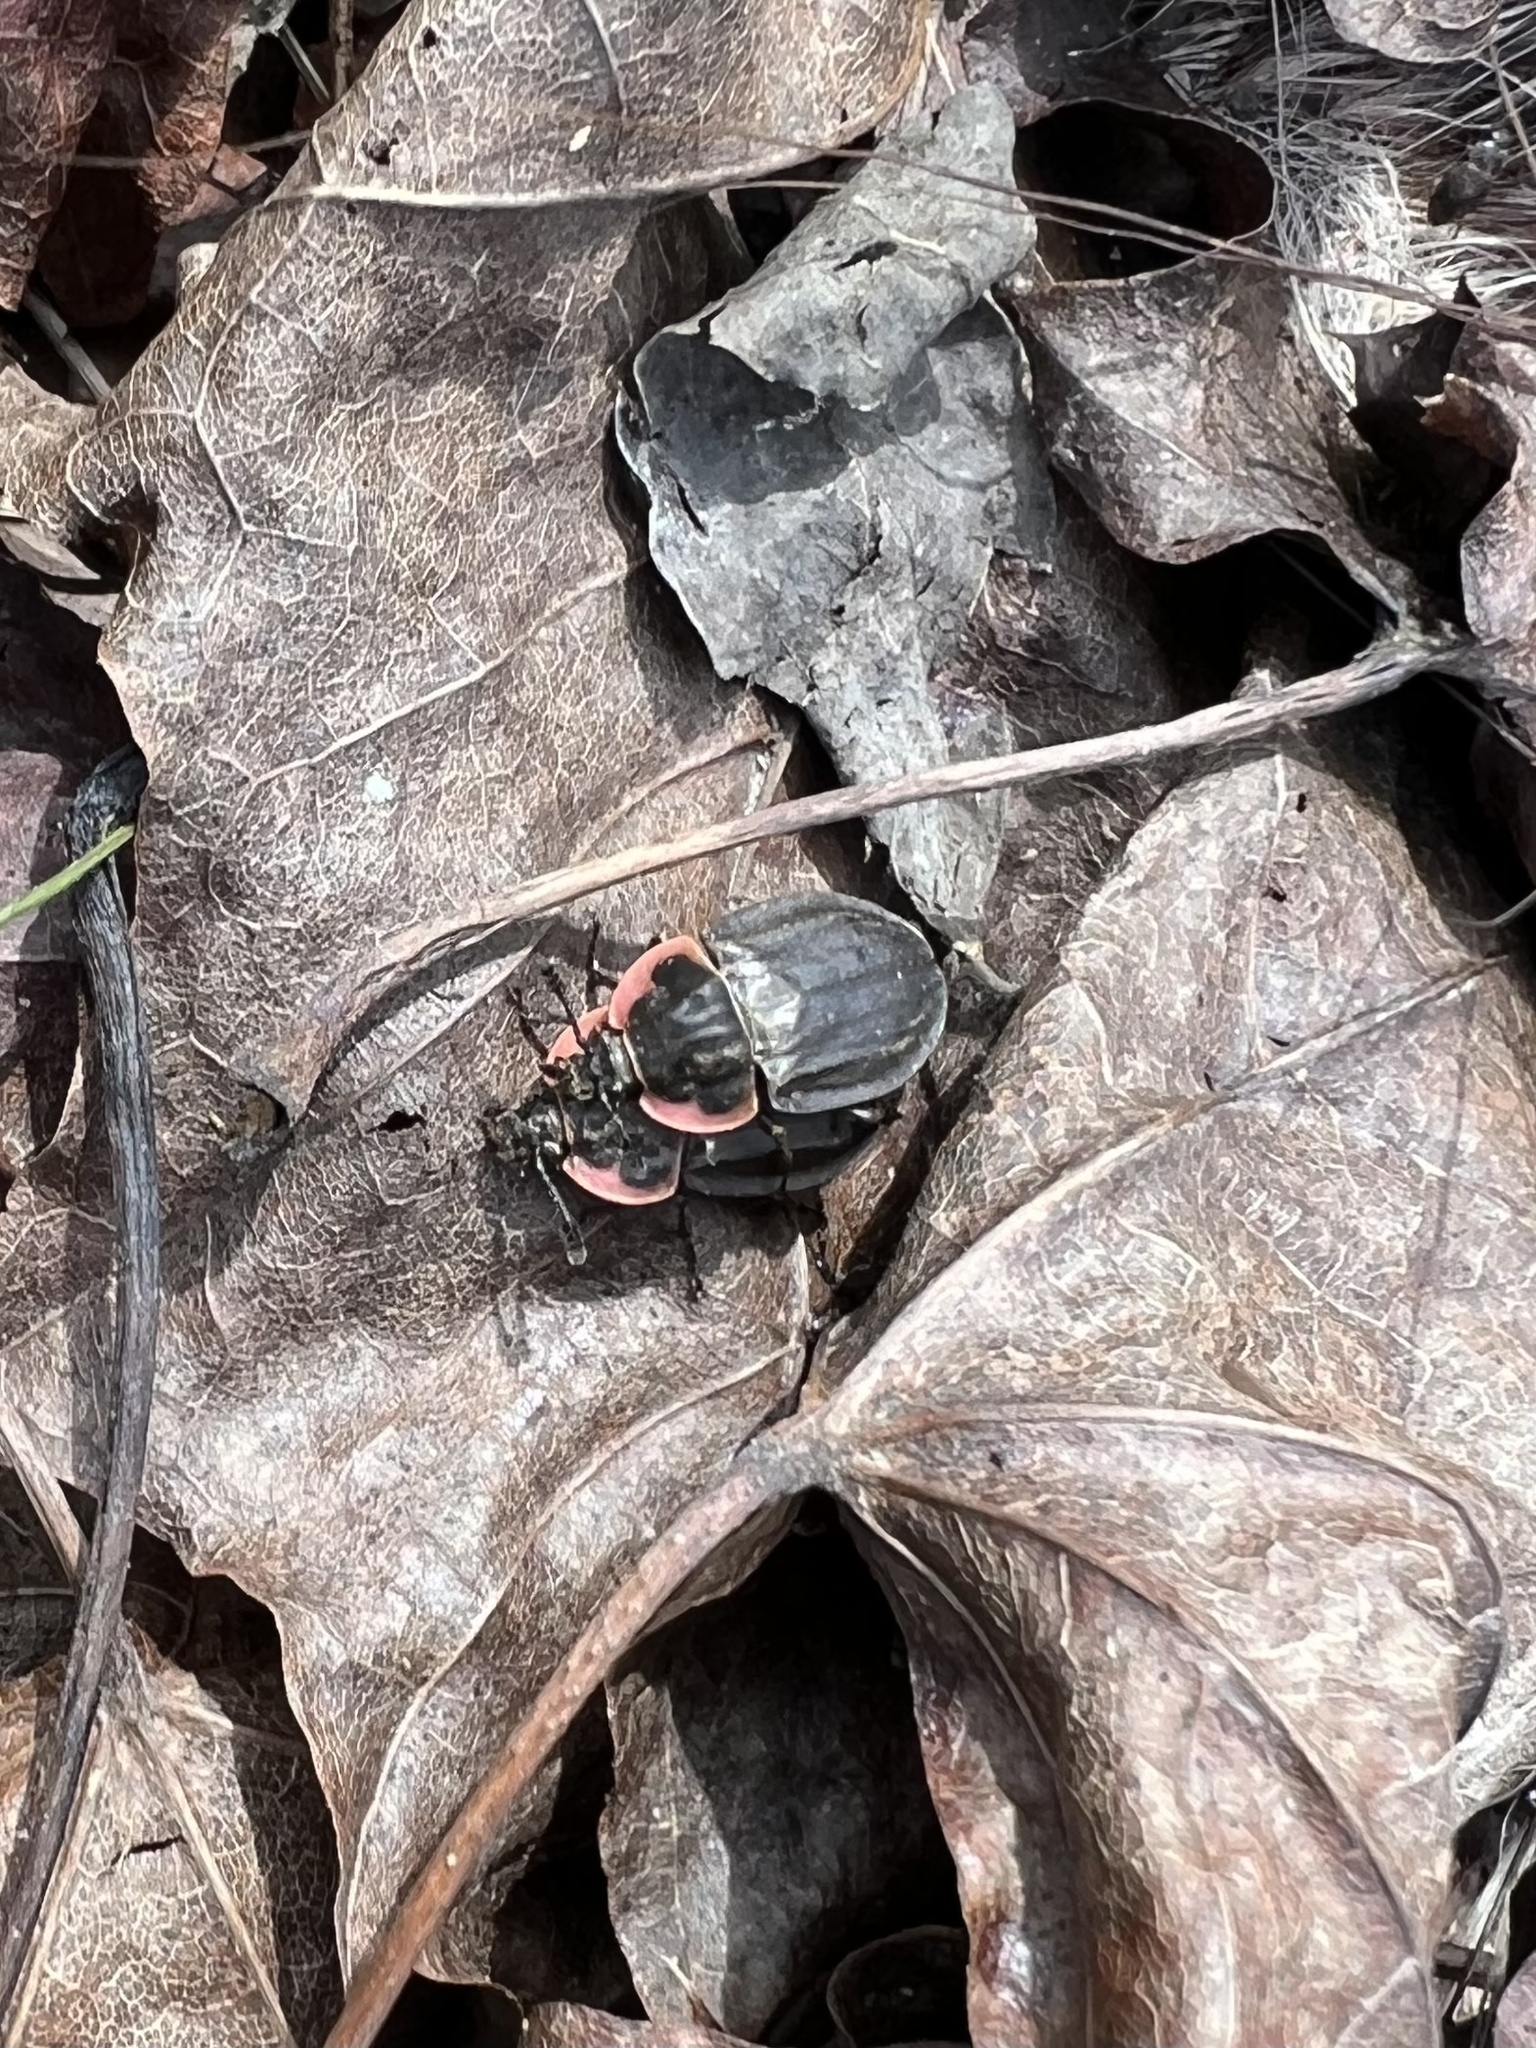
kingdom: Animalia
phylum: Arthropoda
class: Insecta
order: Coleoptera
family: Staphylinidae
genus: Oiceoptoma
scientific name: Oiceoptoma noveboracense
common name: Margined carrion beetle
